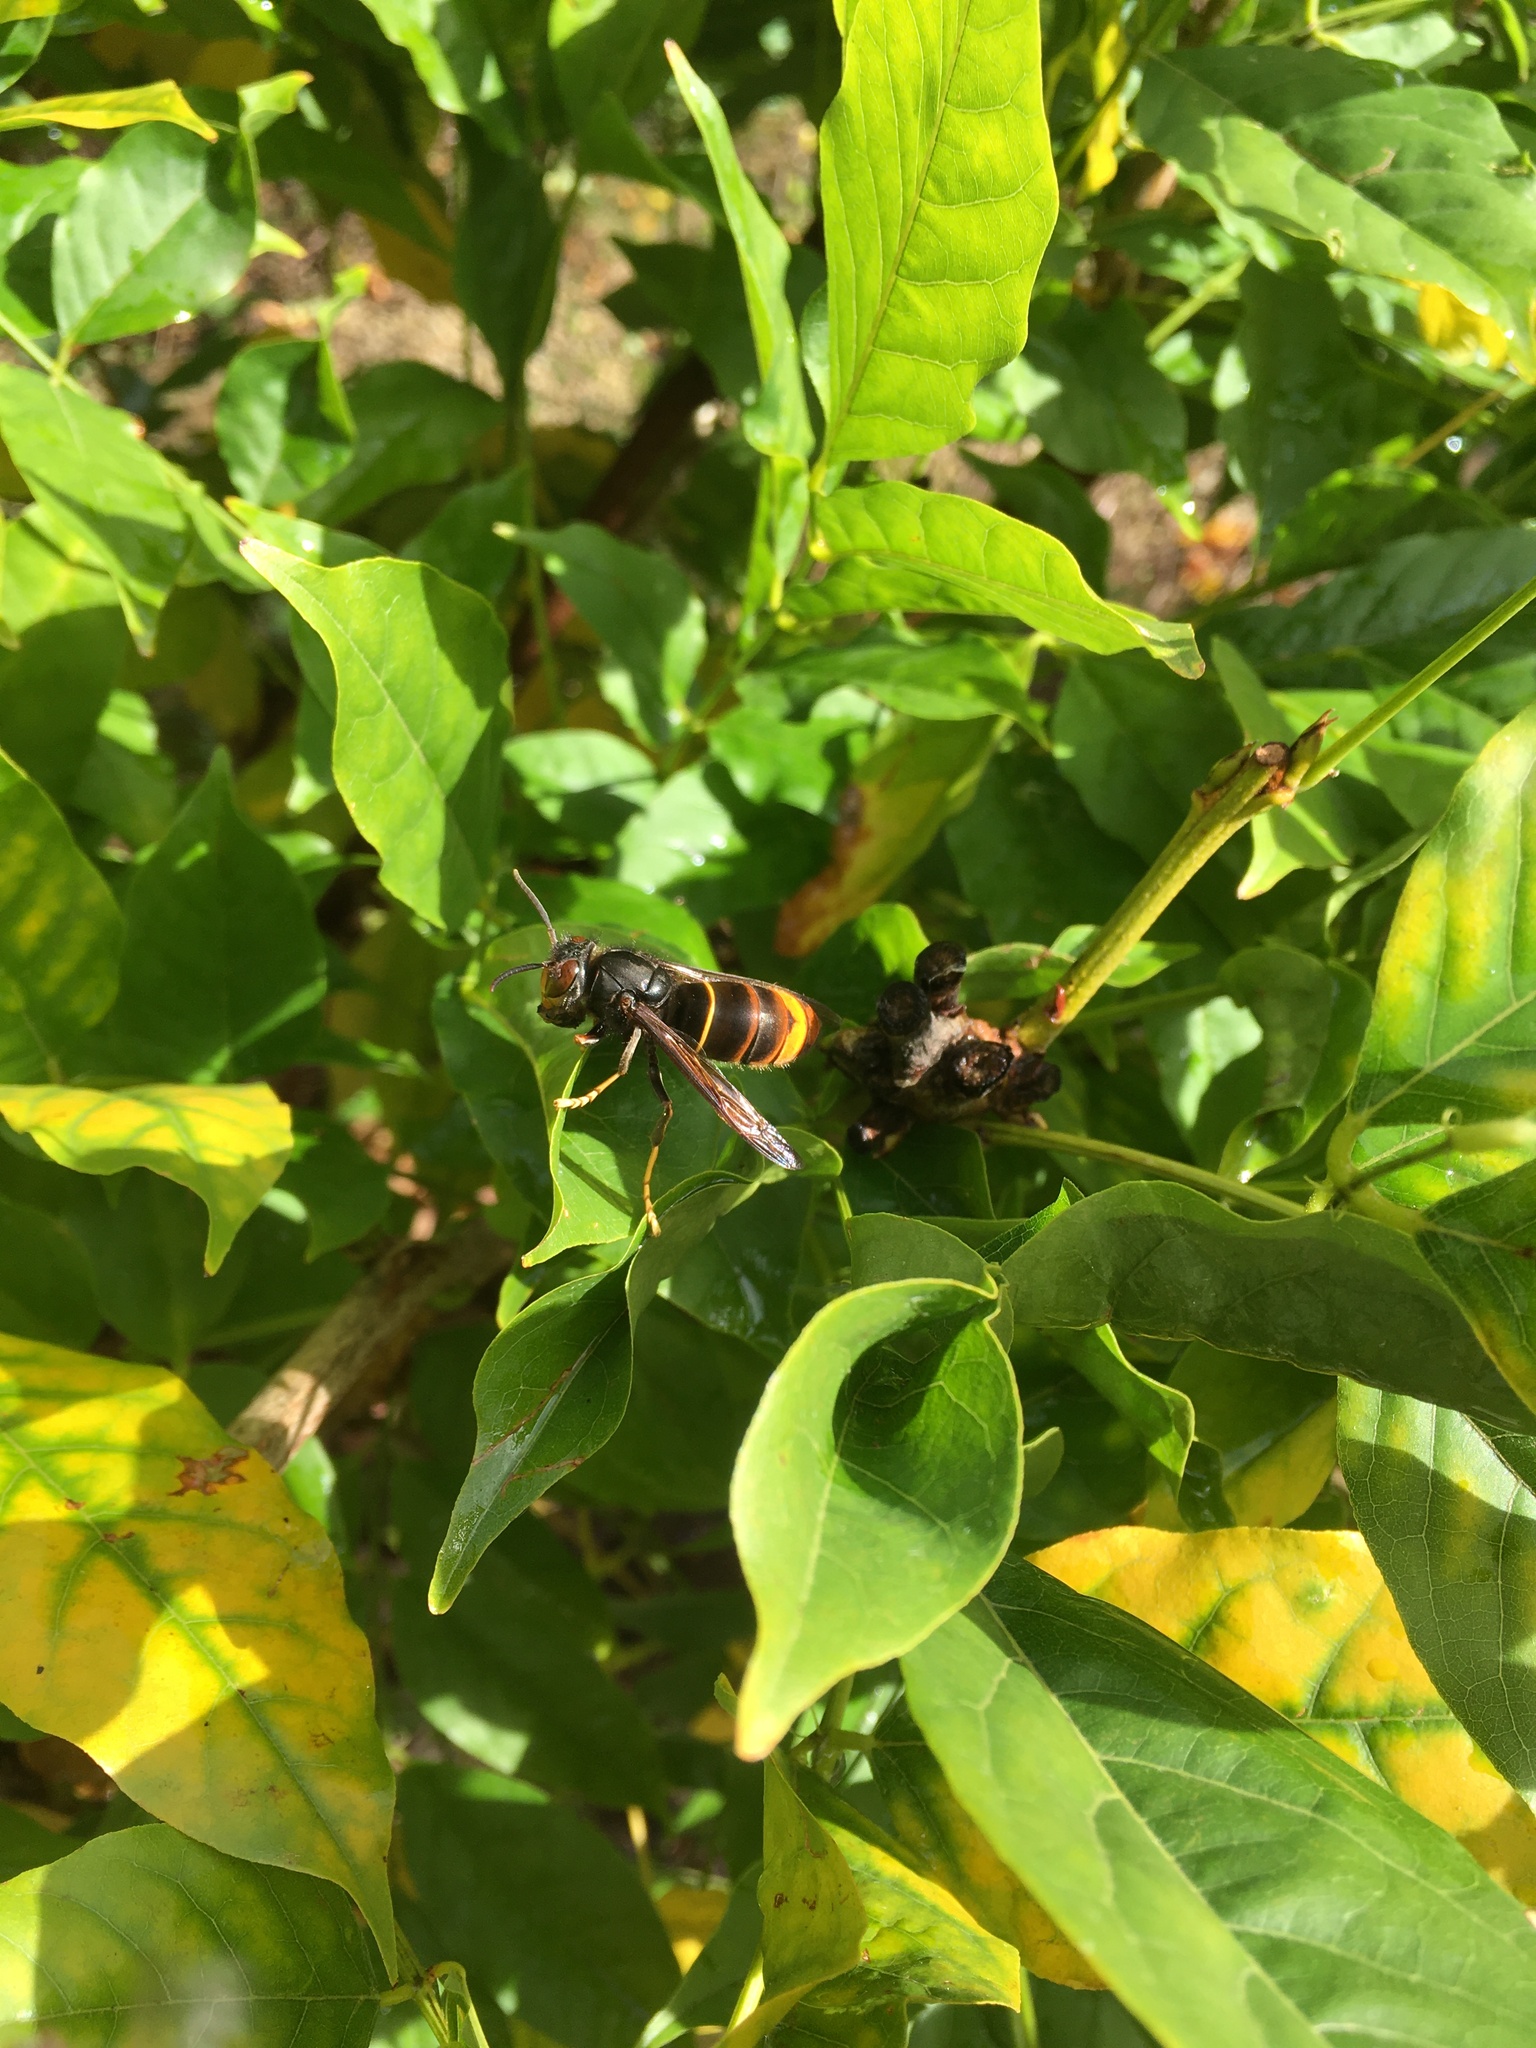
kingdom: Animalia
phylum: Arthropoda
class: Insecta
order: Hymenoptera
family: Vespidae
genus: Vespa
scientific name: Vespa velutina
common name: Asian hornet
